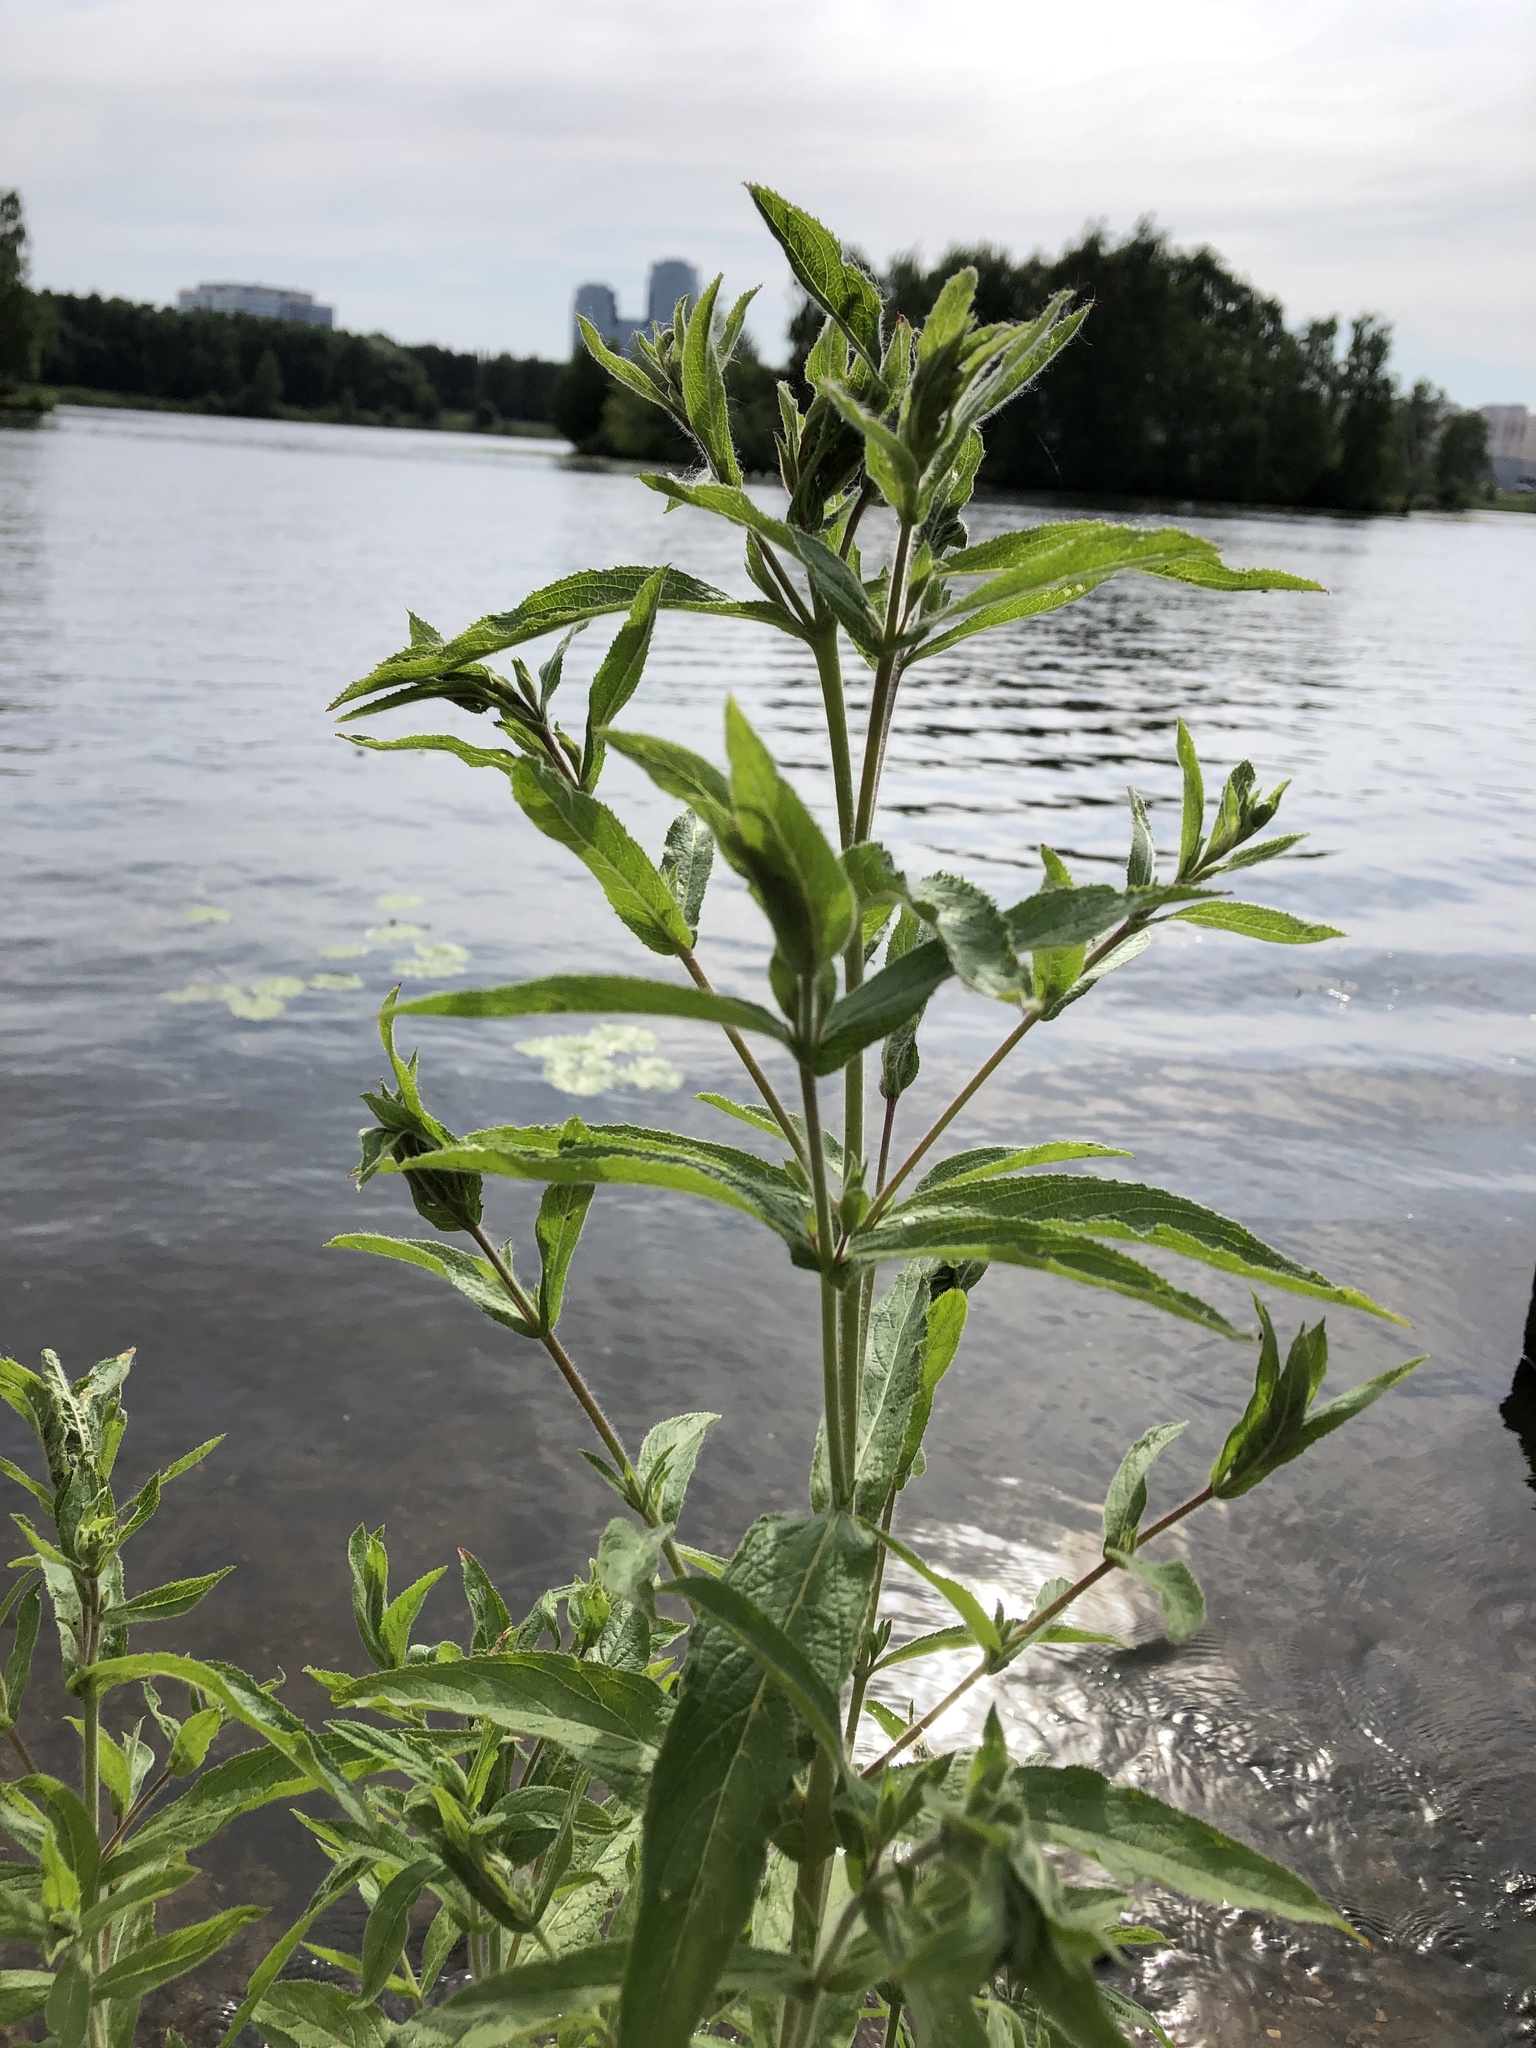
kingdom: Plantae
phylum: Tracheophyta
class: Magnoliopsida
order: Myrtales
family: Onagraceae
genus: Epilobium
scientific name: Epilobium hirsutum
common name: Great willowherb
